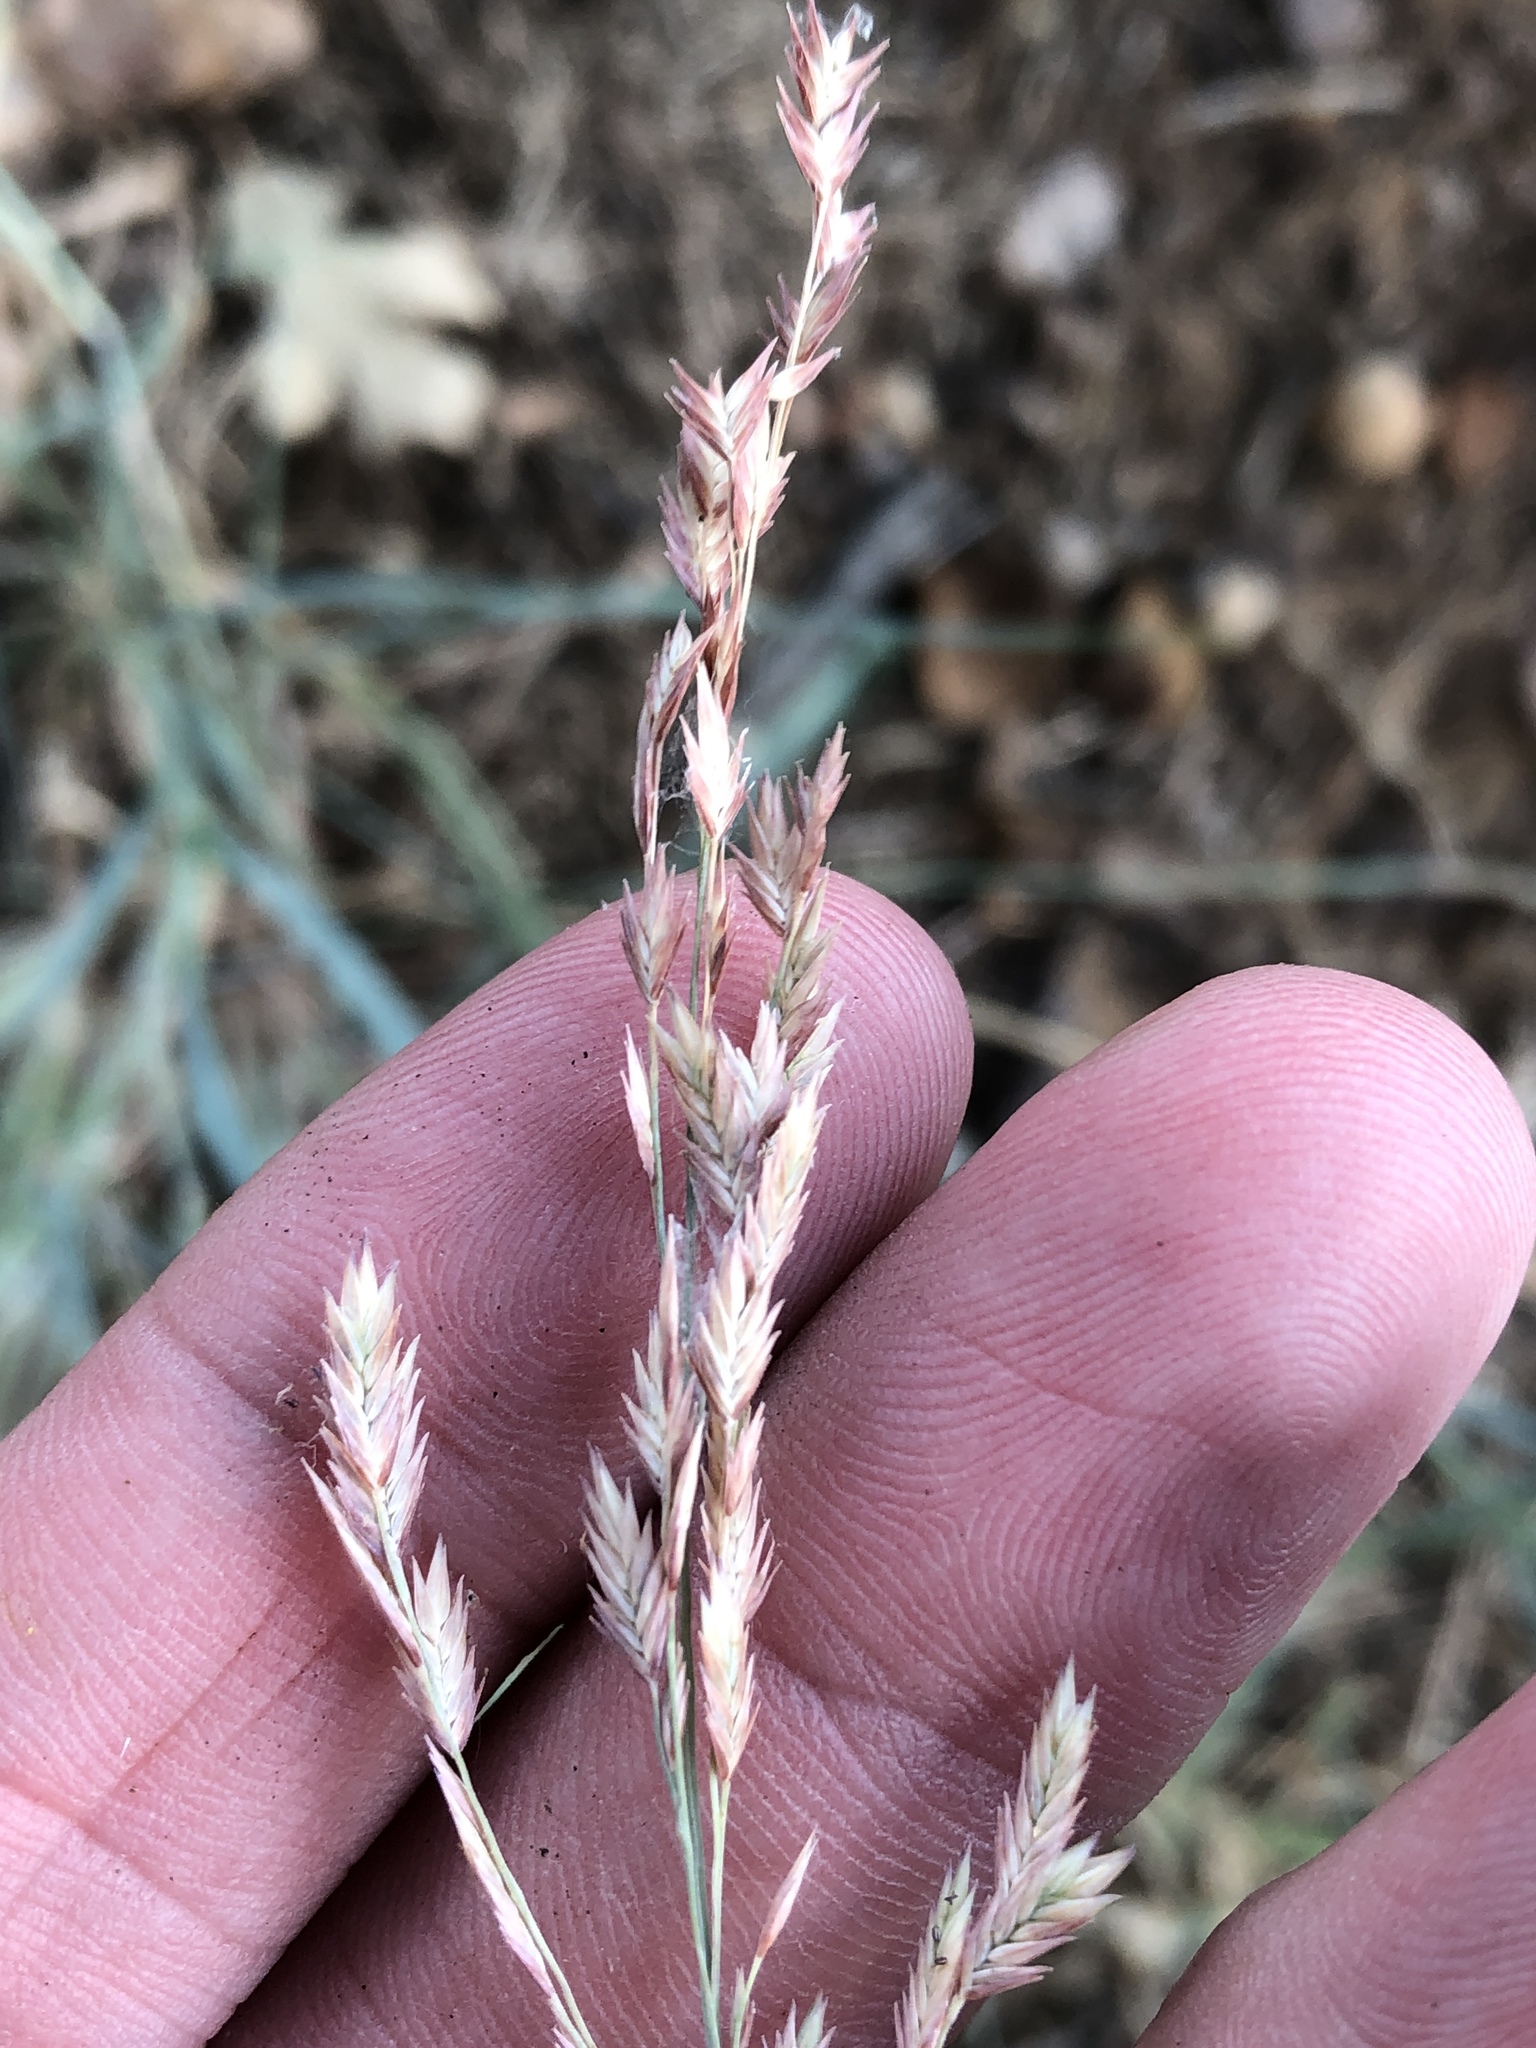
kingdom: Plantae
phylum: Tracheophyta
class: Liliopsida
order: Poales
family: Poaceae
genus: Eragrostis
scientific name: Eragrostis secundiflora
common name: Red love grass
